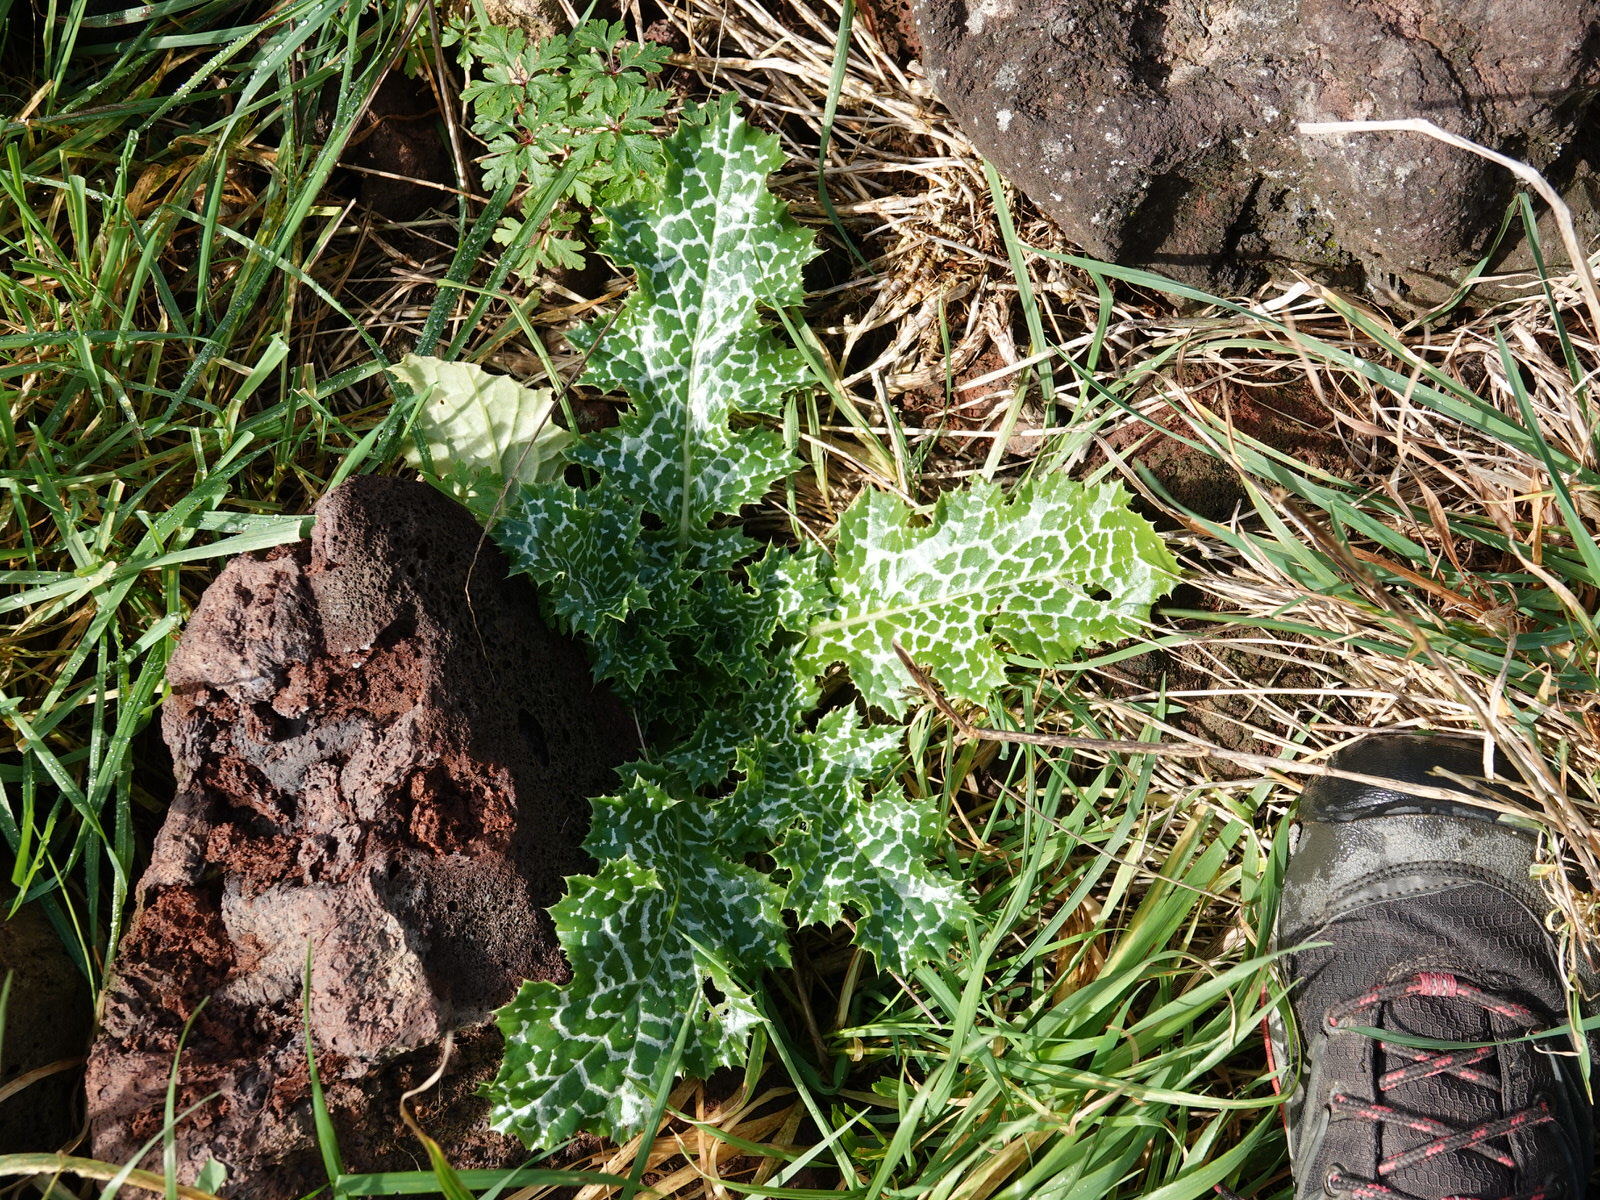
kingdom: Plantae
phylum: Tracheophyta
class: Magnoliopsida
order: Asterales
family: Asteraceae
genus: Silybum
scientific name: Silybum marianum
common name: Milk thistle
